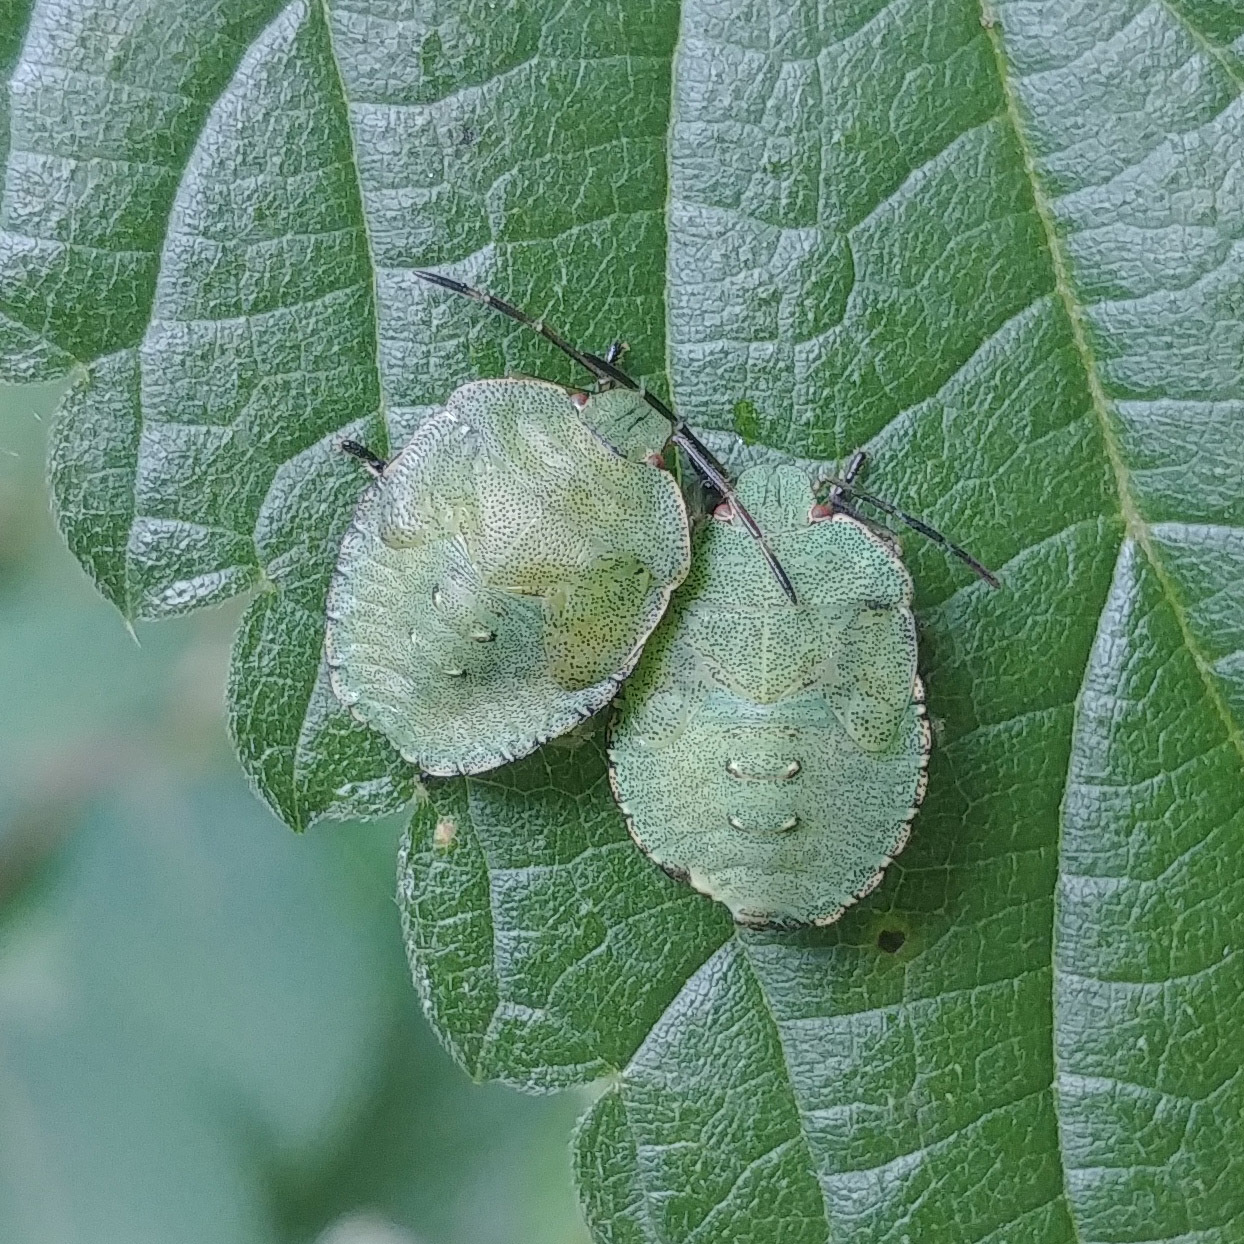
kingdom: Animalia
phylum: Arthropoda
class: Insecta
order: Hemiptera
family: Pentatomidae
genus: Palomena
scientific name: Palomena prasina
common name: Green shieldbug
